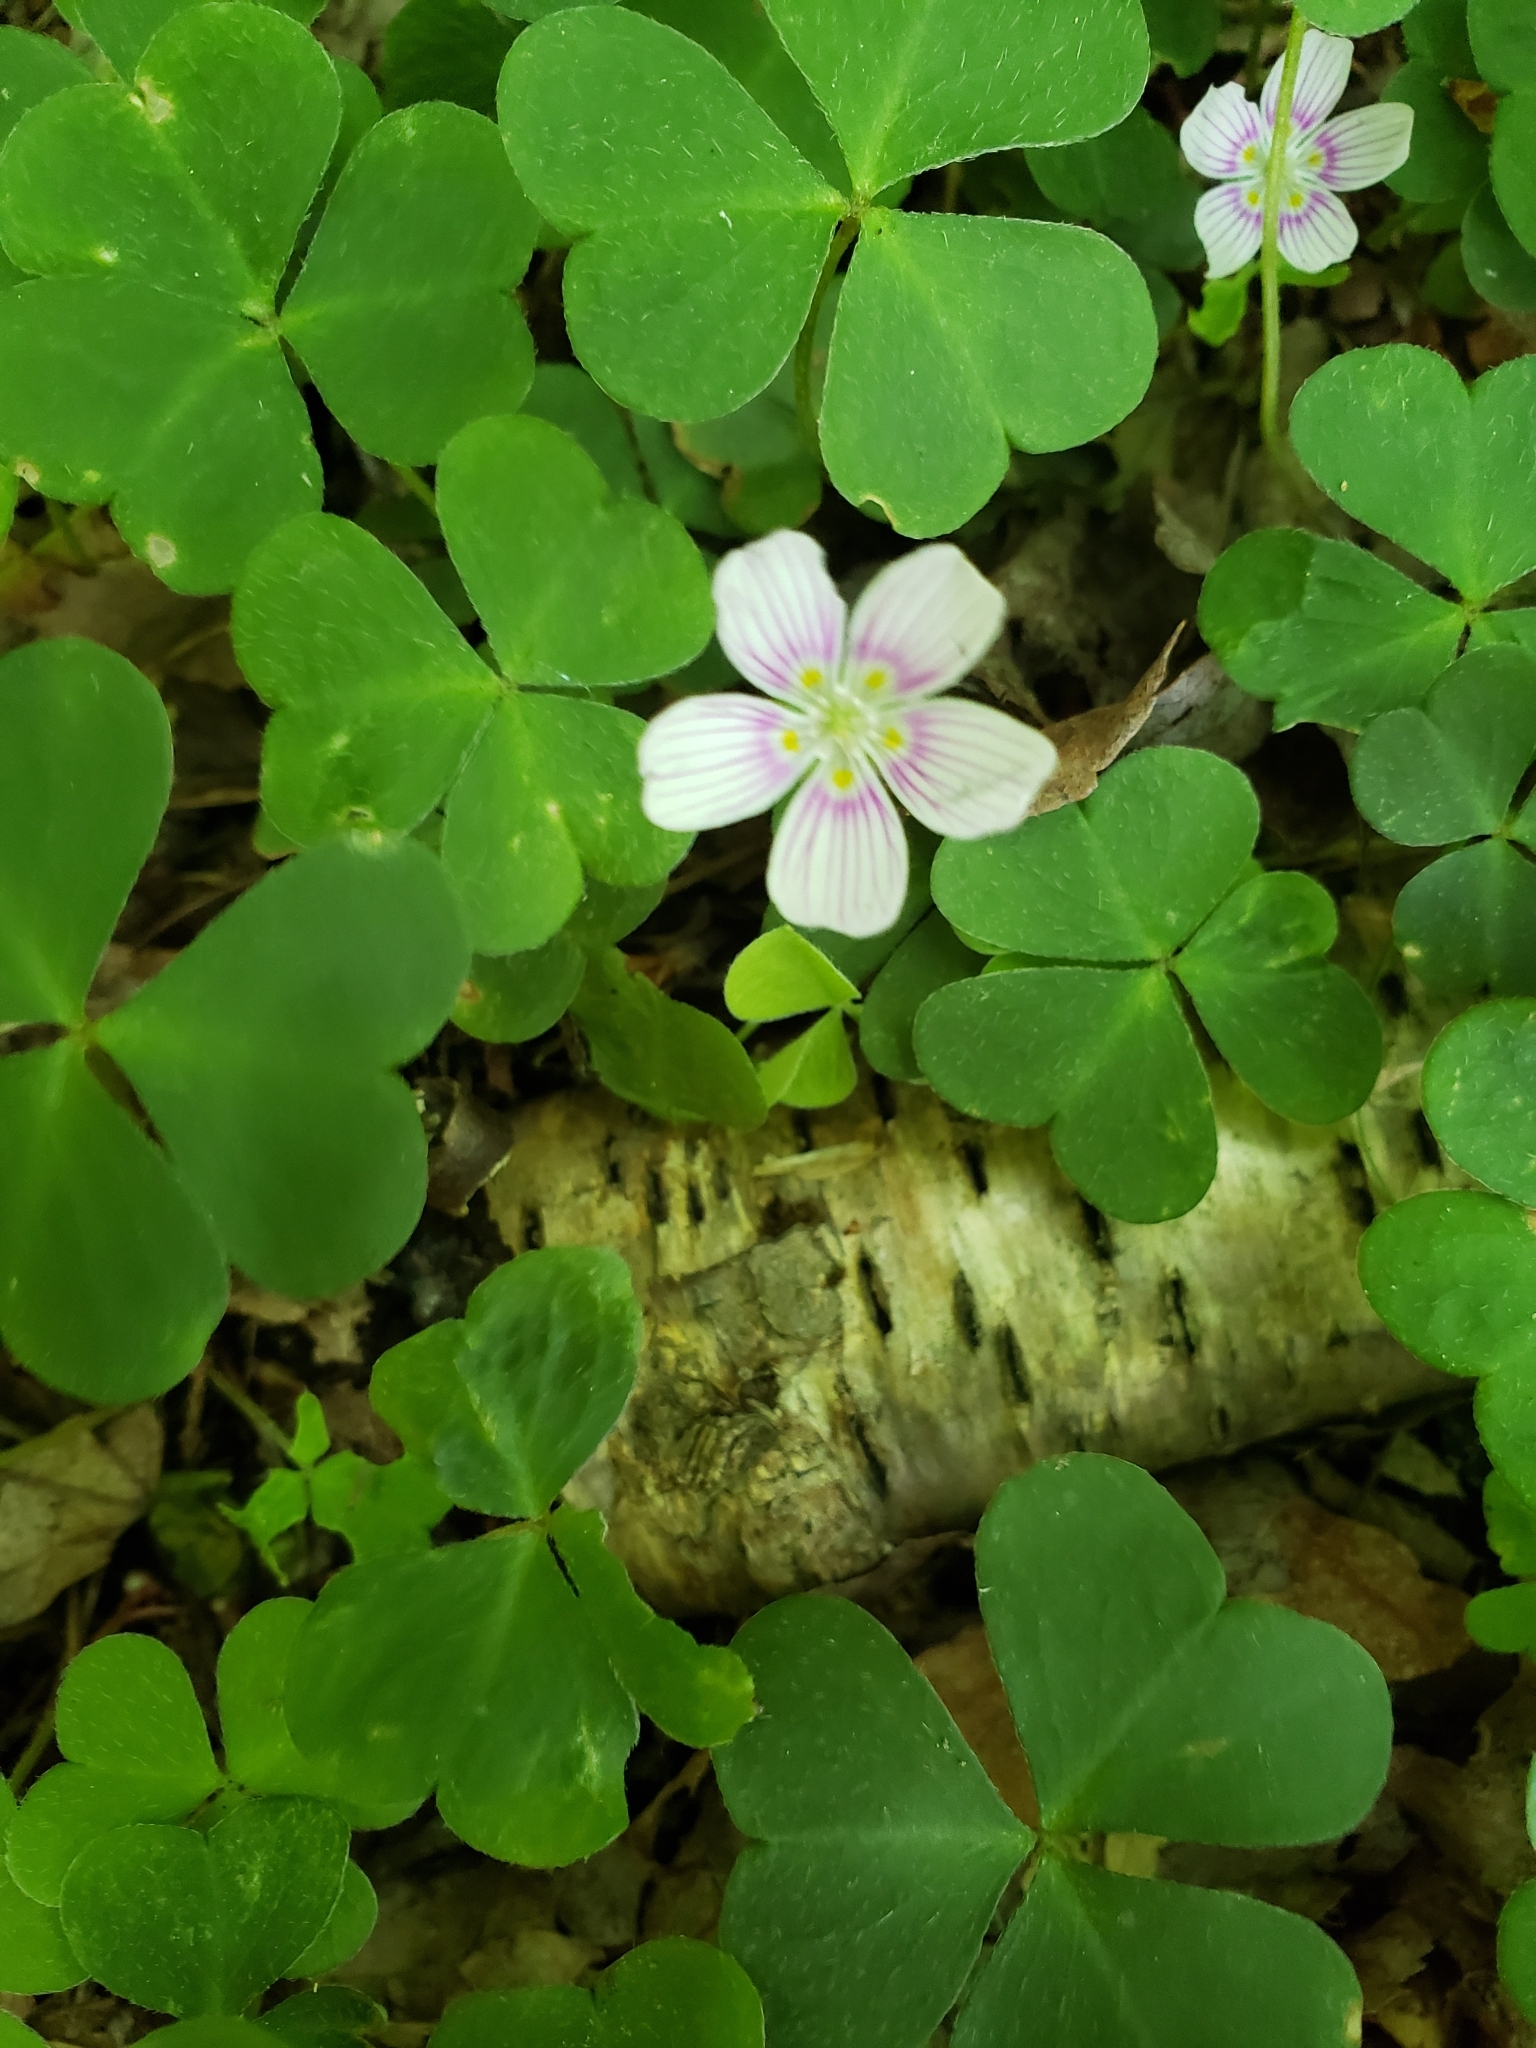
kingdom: Plantae
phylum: Tracheophyta
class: Magnoliopsida
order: Oxalidales
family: Oxalidaceae
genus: Oxalis
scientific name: Oxalis montana
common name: American wood-sorrel
